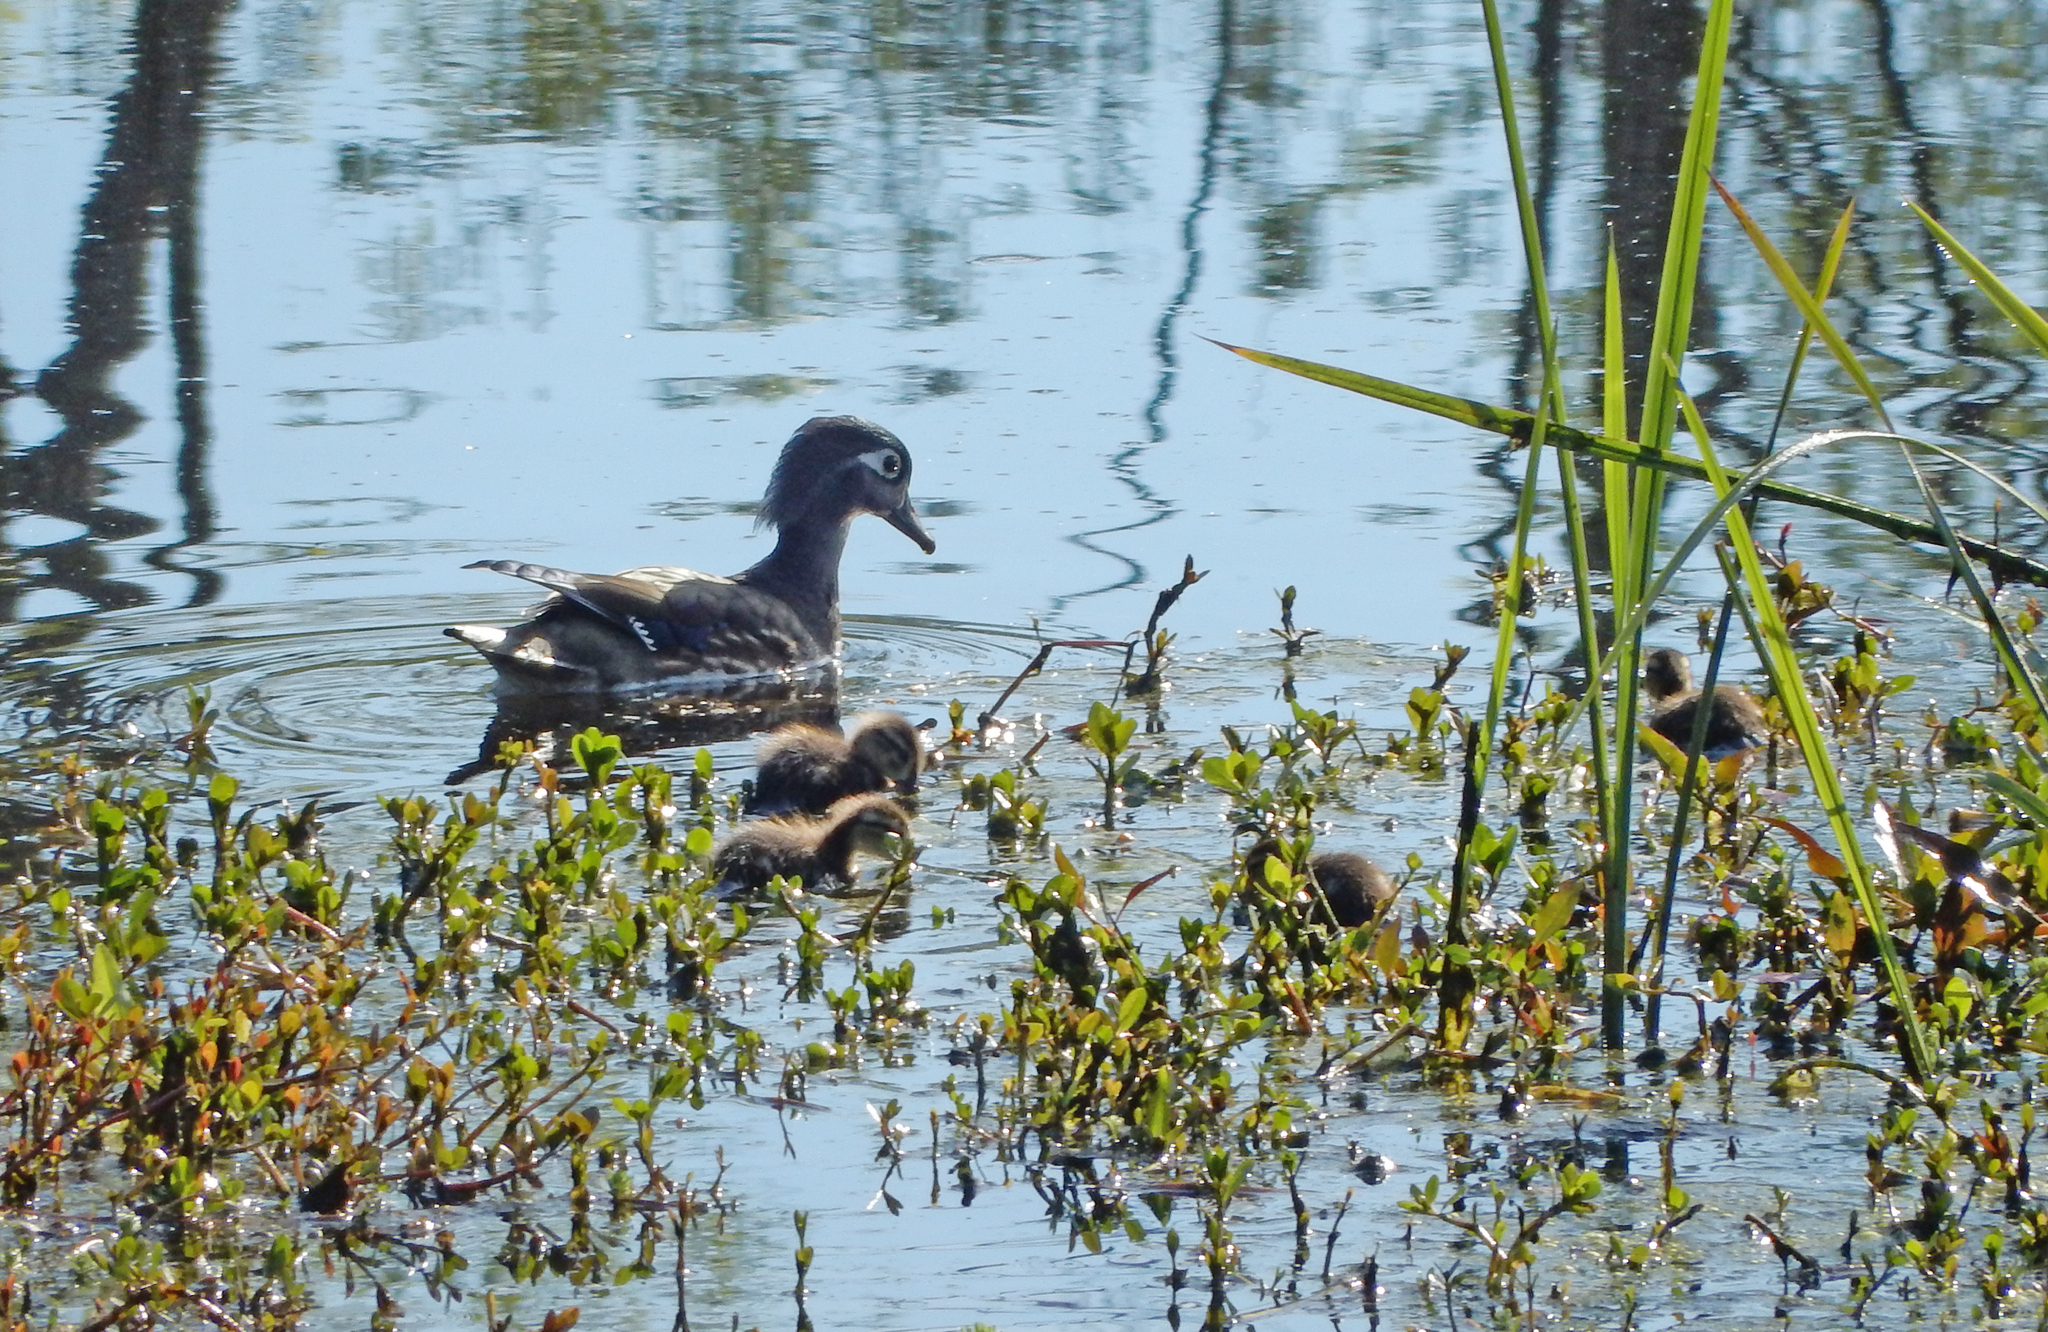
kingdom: Animalia
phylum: Chordata
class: Aves
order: Anseriformes
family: Anatidae
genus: Aix
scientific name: Aix sponsa
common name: Wood duck
